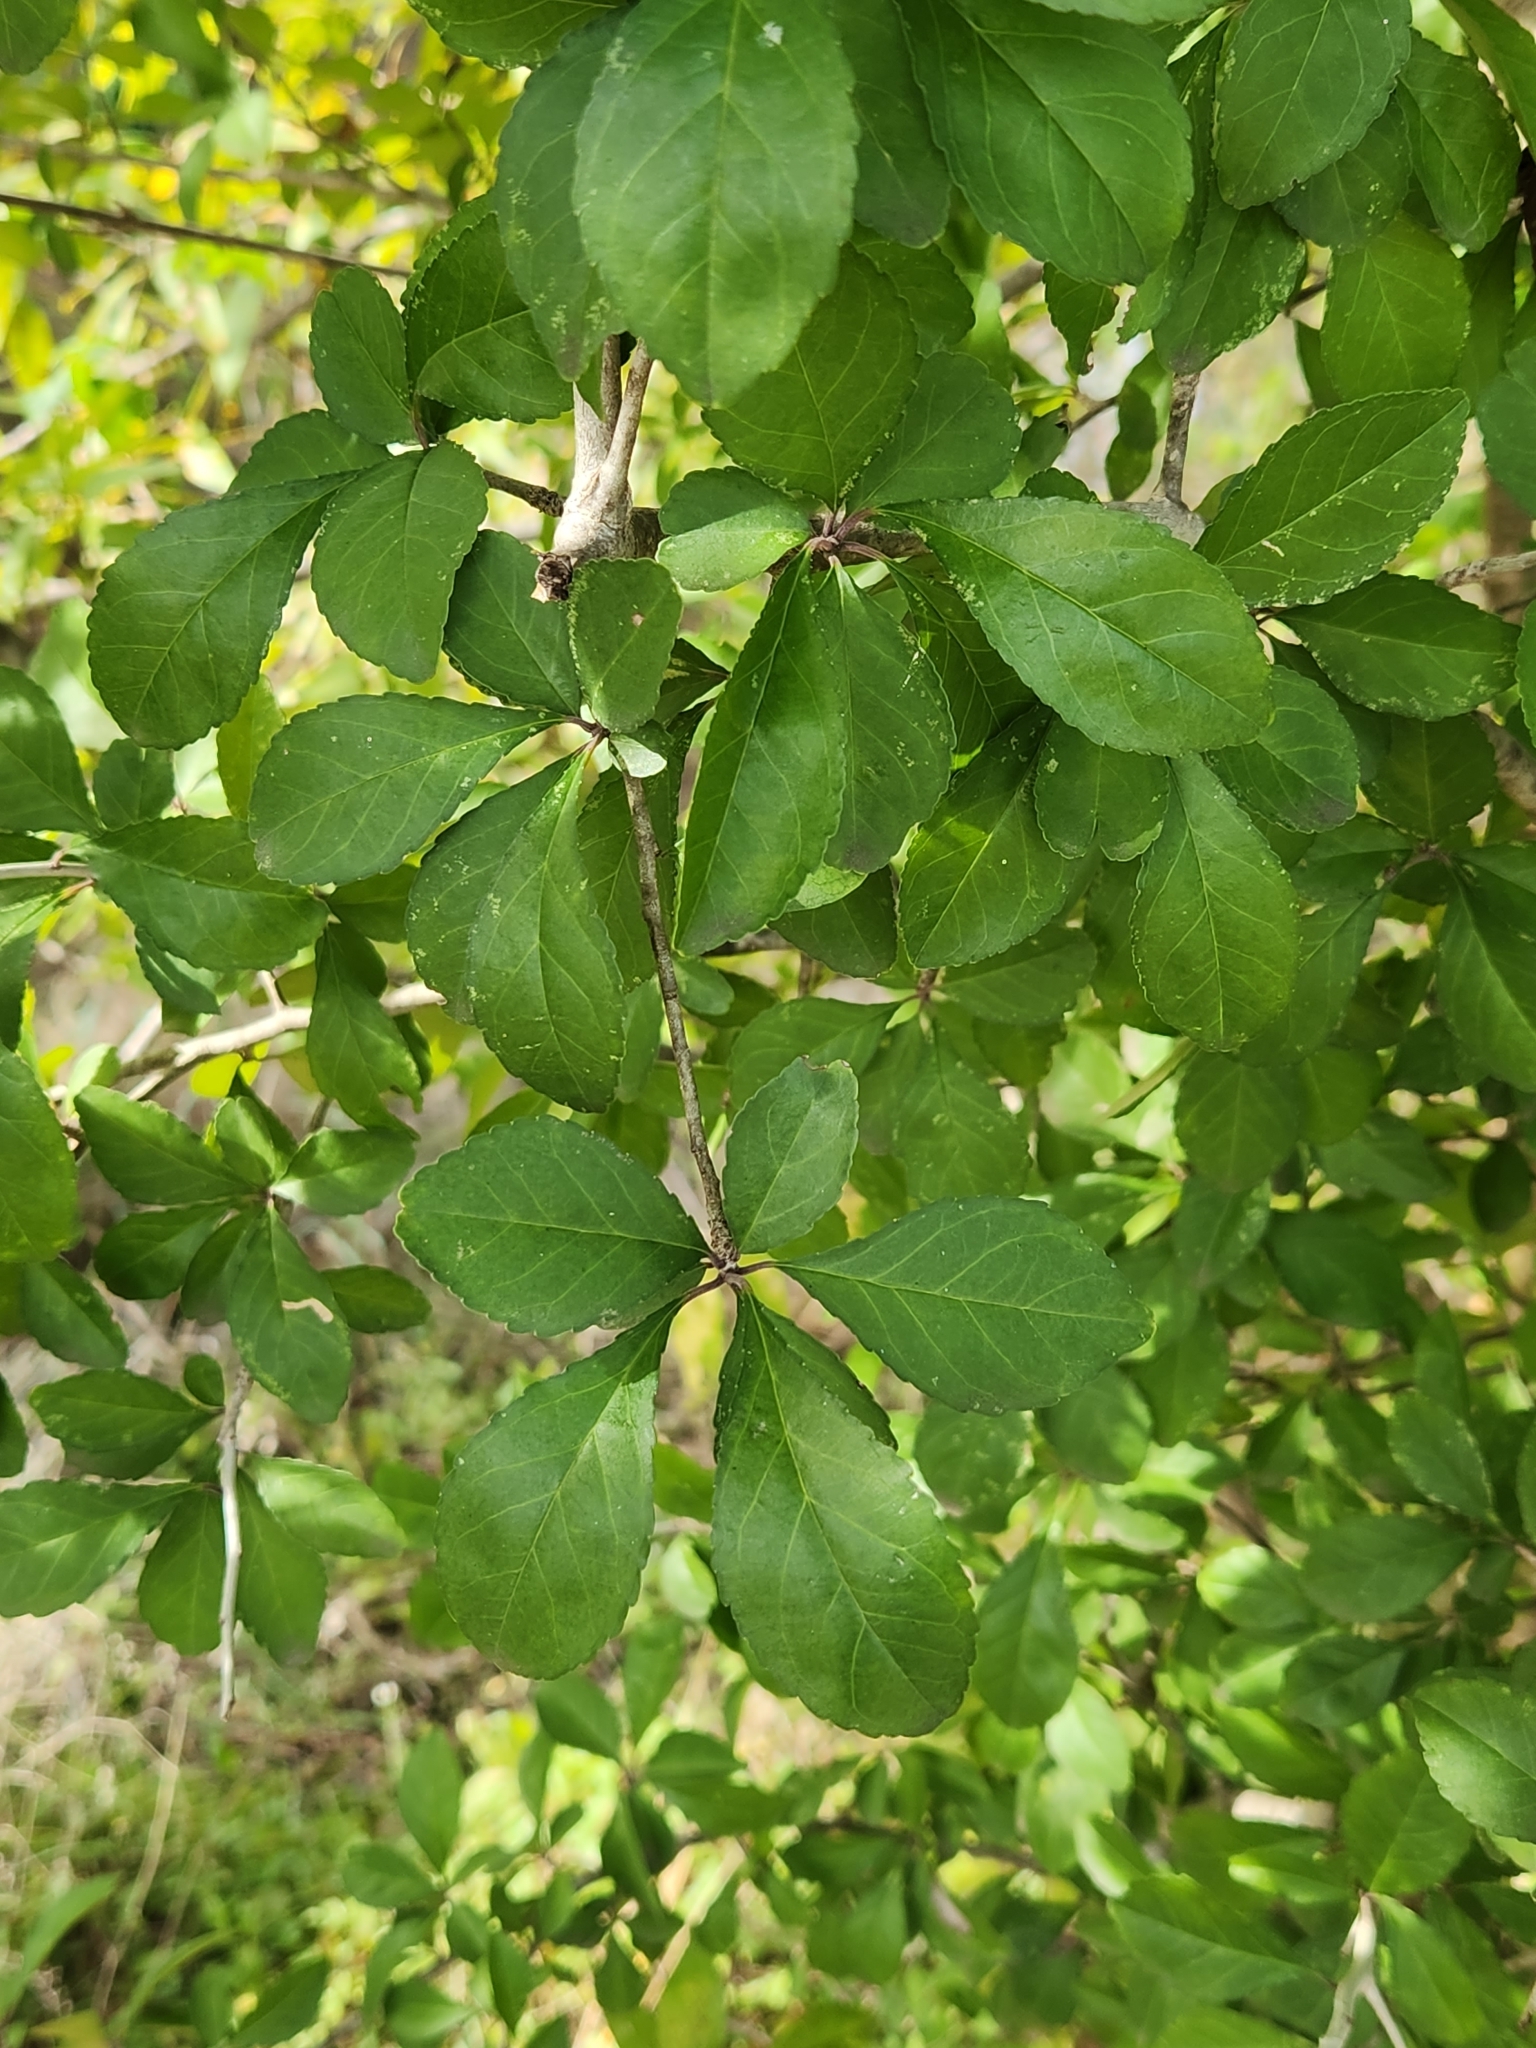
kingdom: Plantae
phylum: Tracheophyta
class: Magnoliopsida
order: Aquifoliales
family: Aquifoliaceae
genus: Ilex
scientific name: Ilex decidua
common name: Possum-haw
